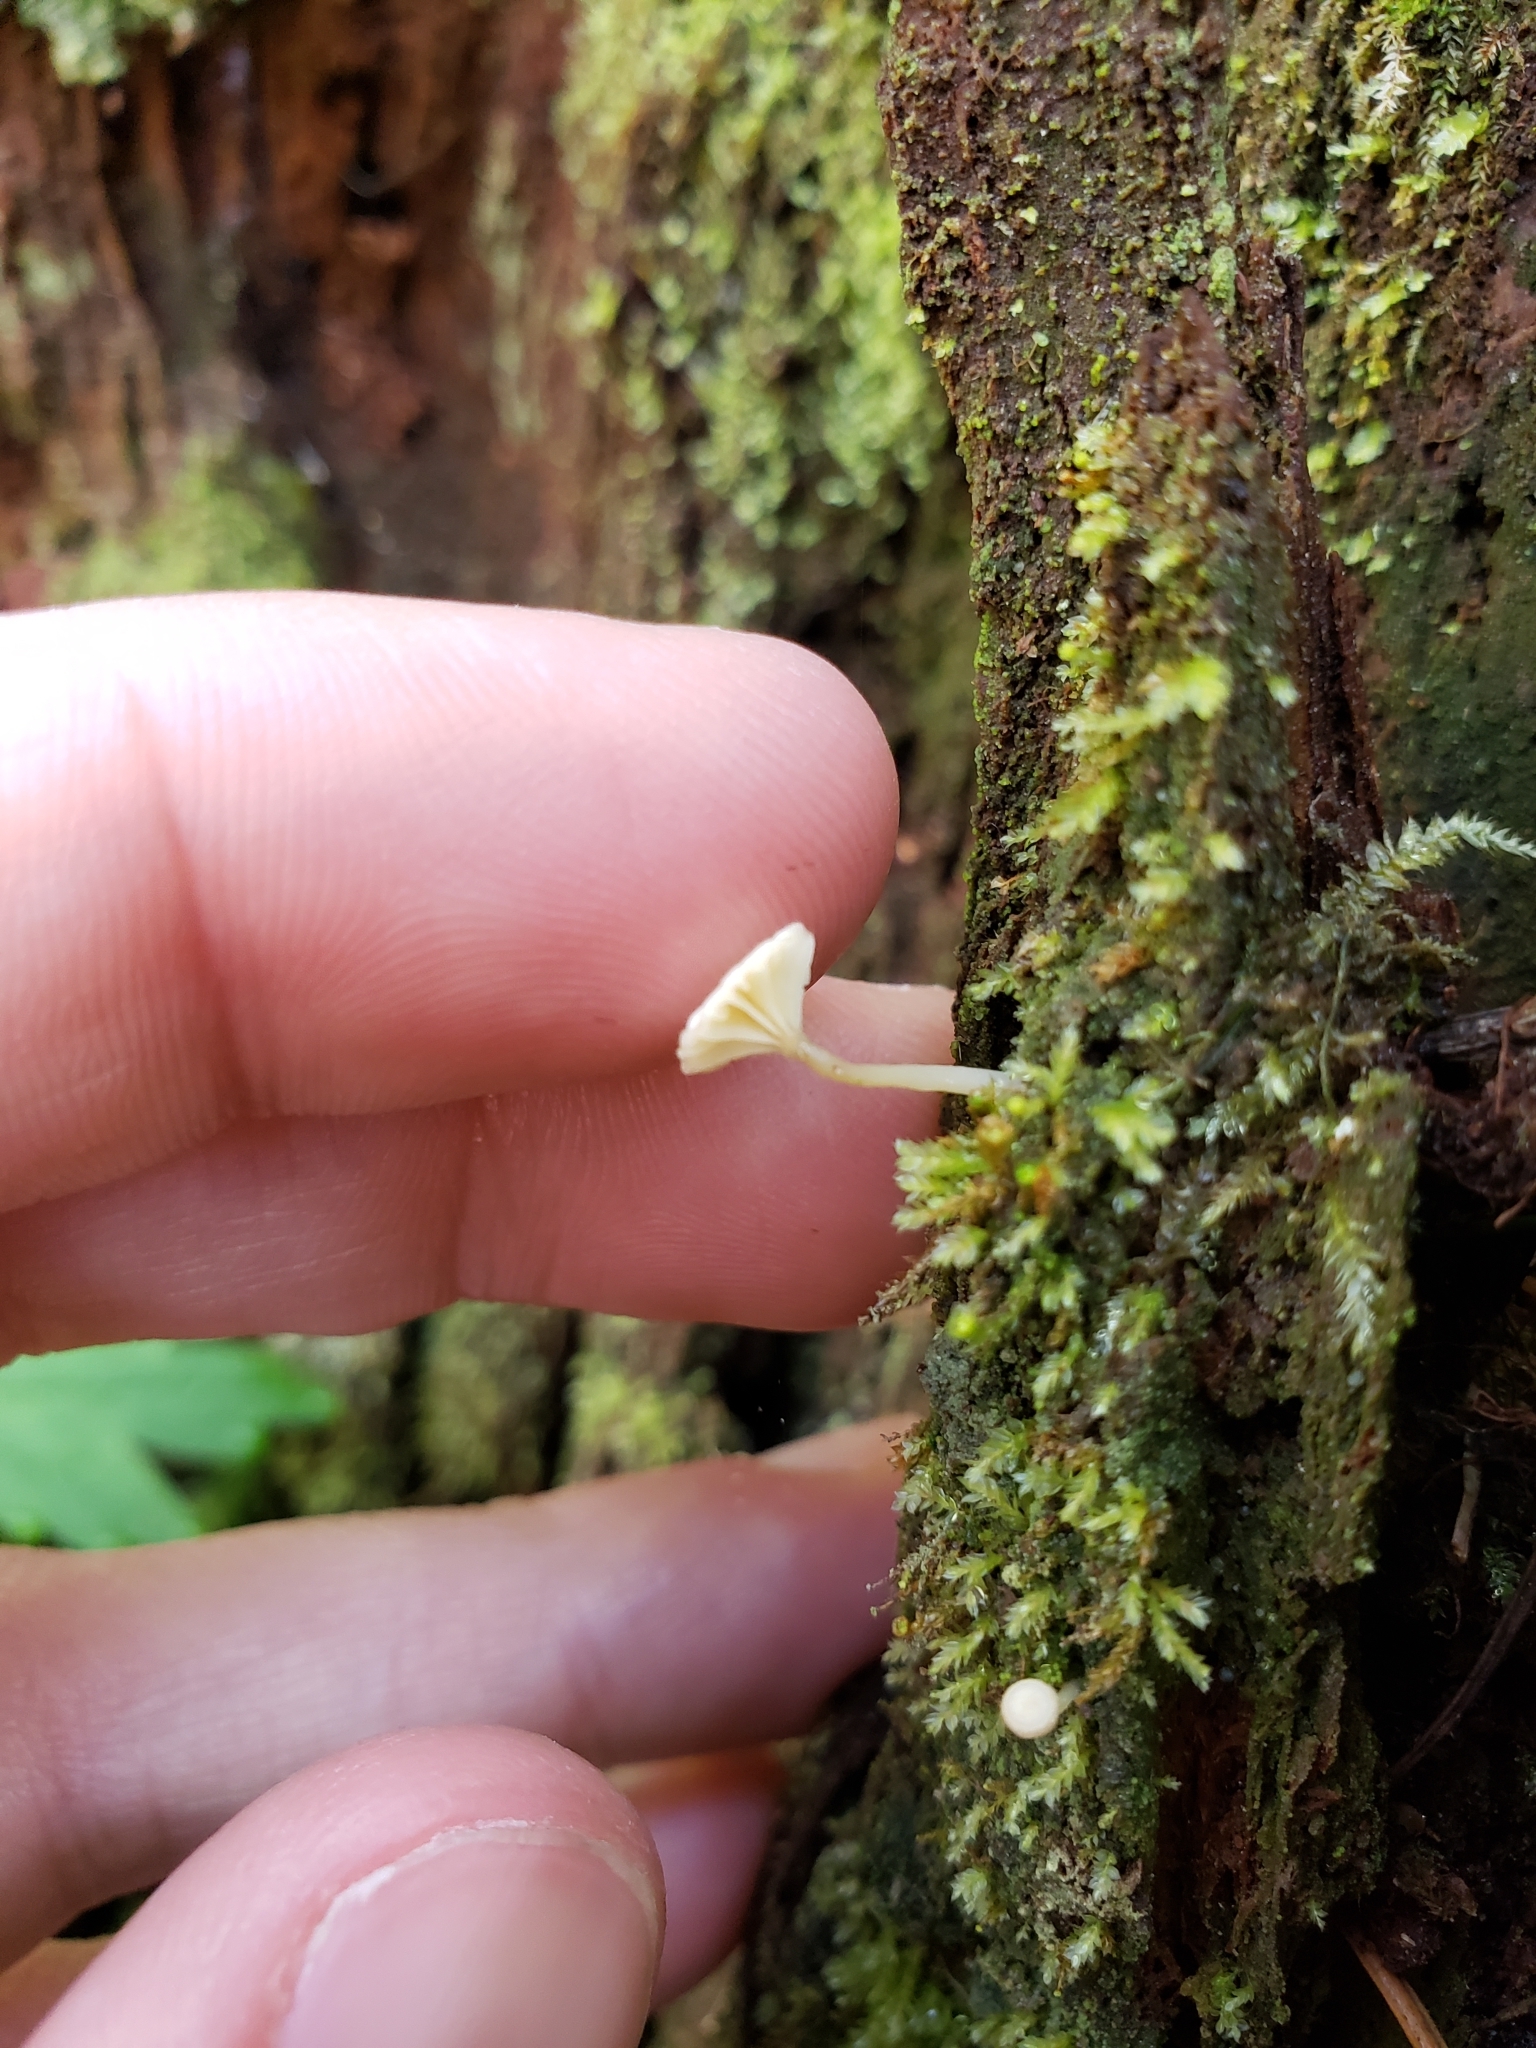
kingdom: Fungi
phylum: Basidiomycota
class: Agaricomycetes
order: Agaricales
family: Hygrophoraceae
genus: Lichenomphalia
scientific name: Lichenomphalia
